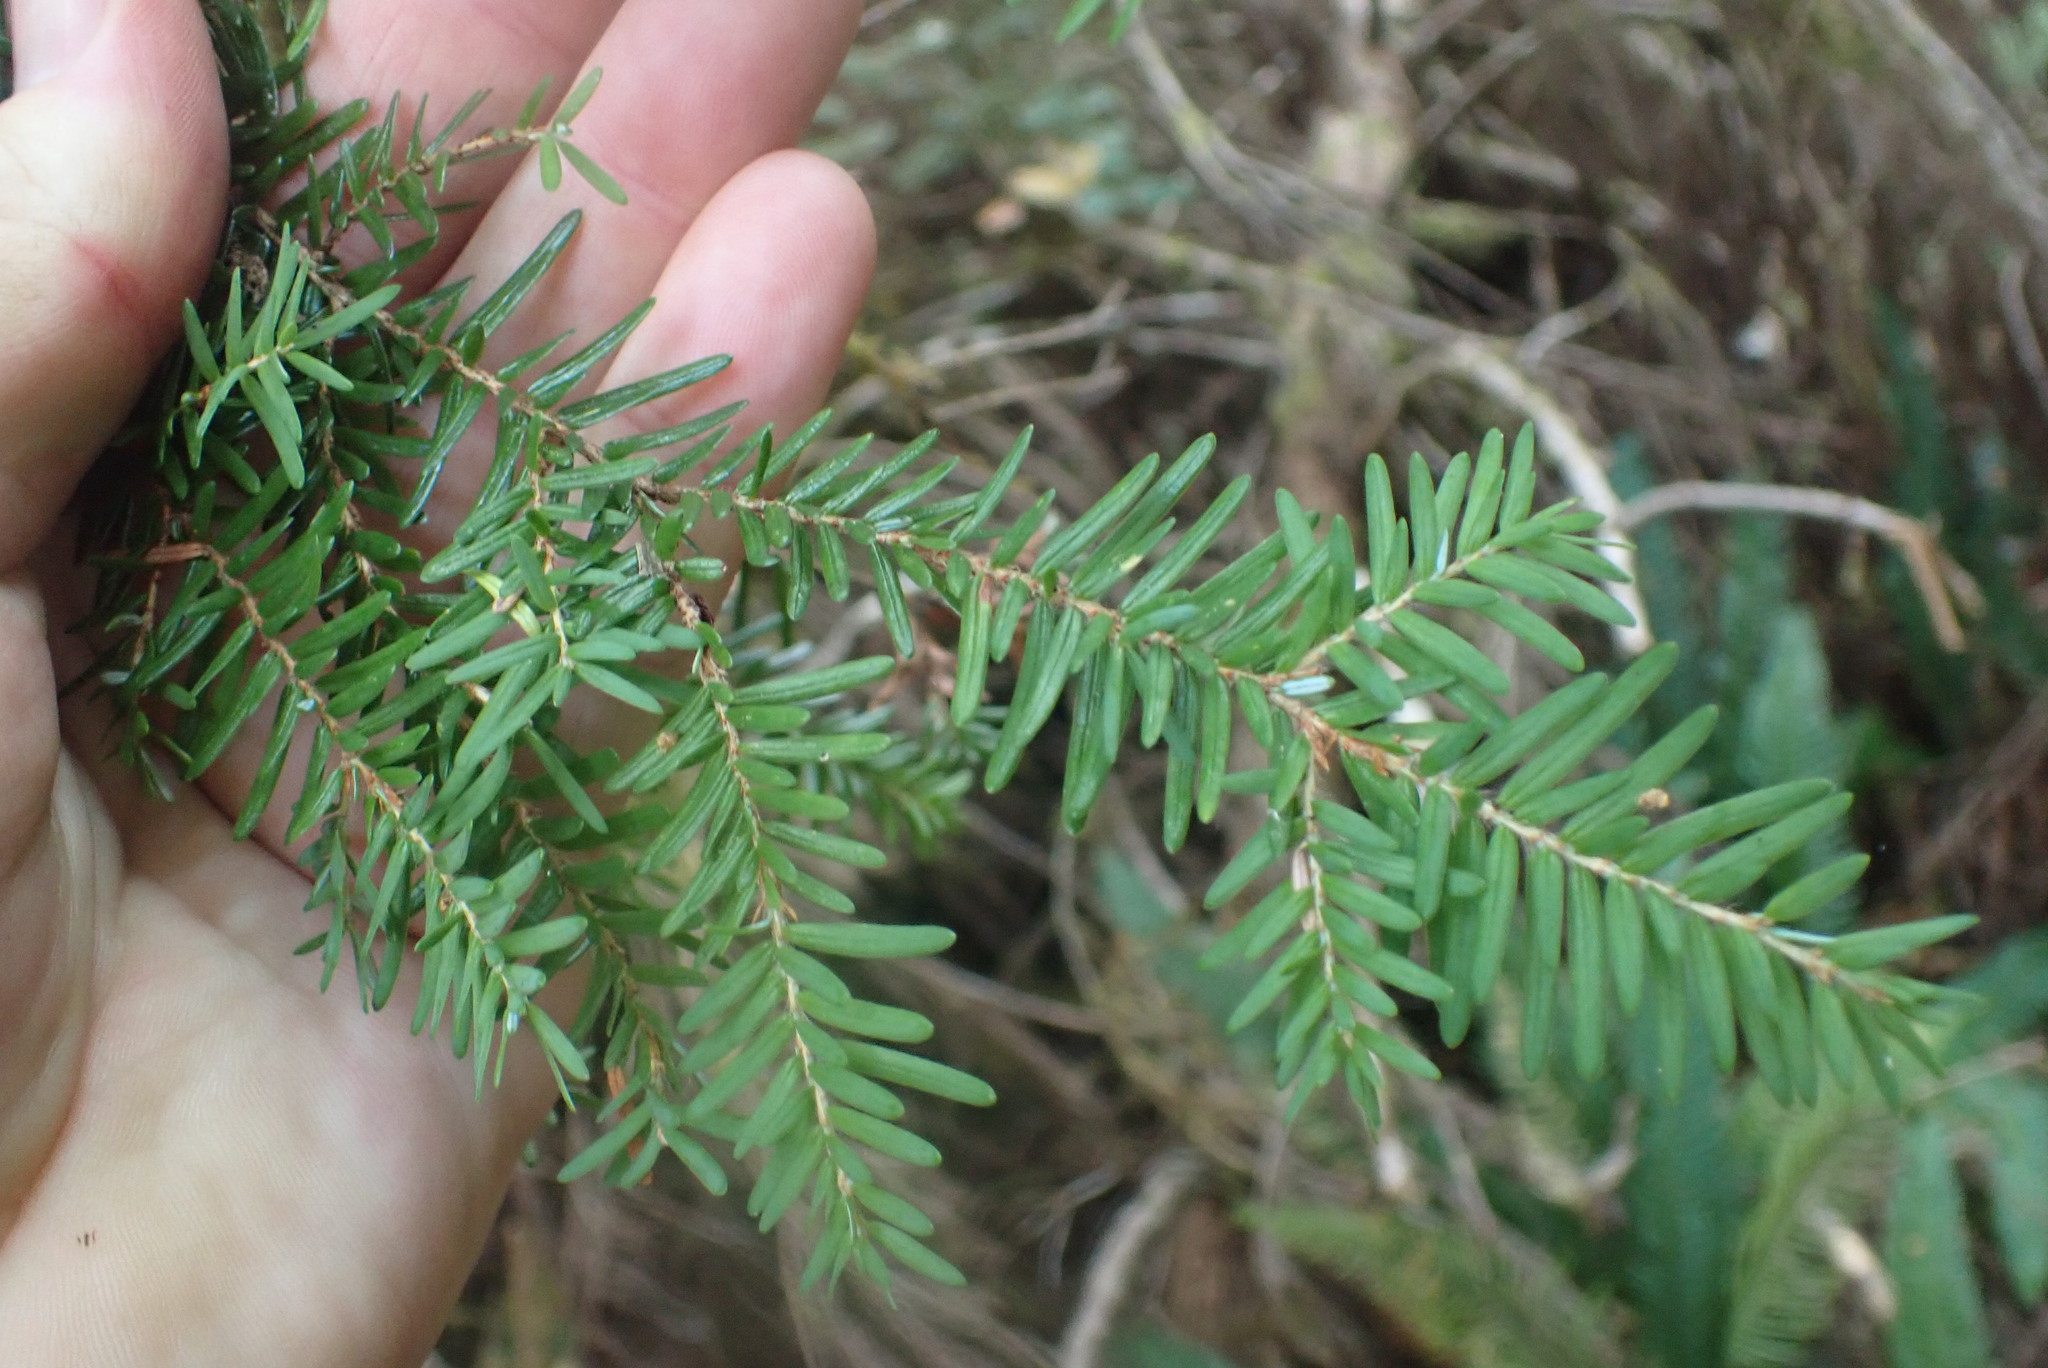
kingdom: Plantae
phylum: Tracheophyta
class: Pinopsida
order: Pinales
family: Pinaceae
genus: Tsuga
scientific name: Tsuga heterophylla
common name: Western hemlock
